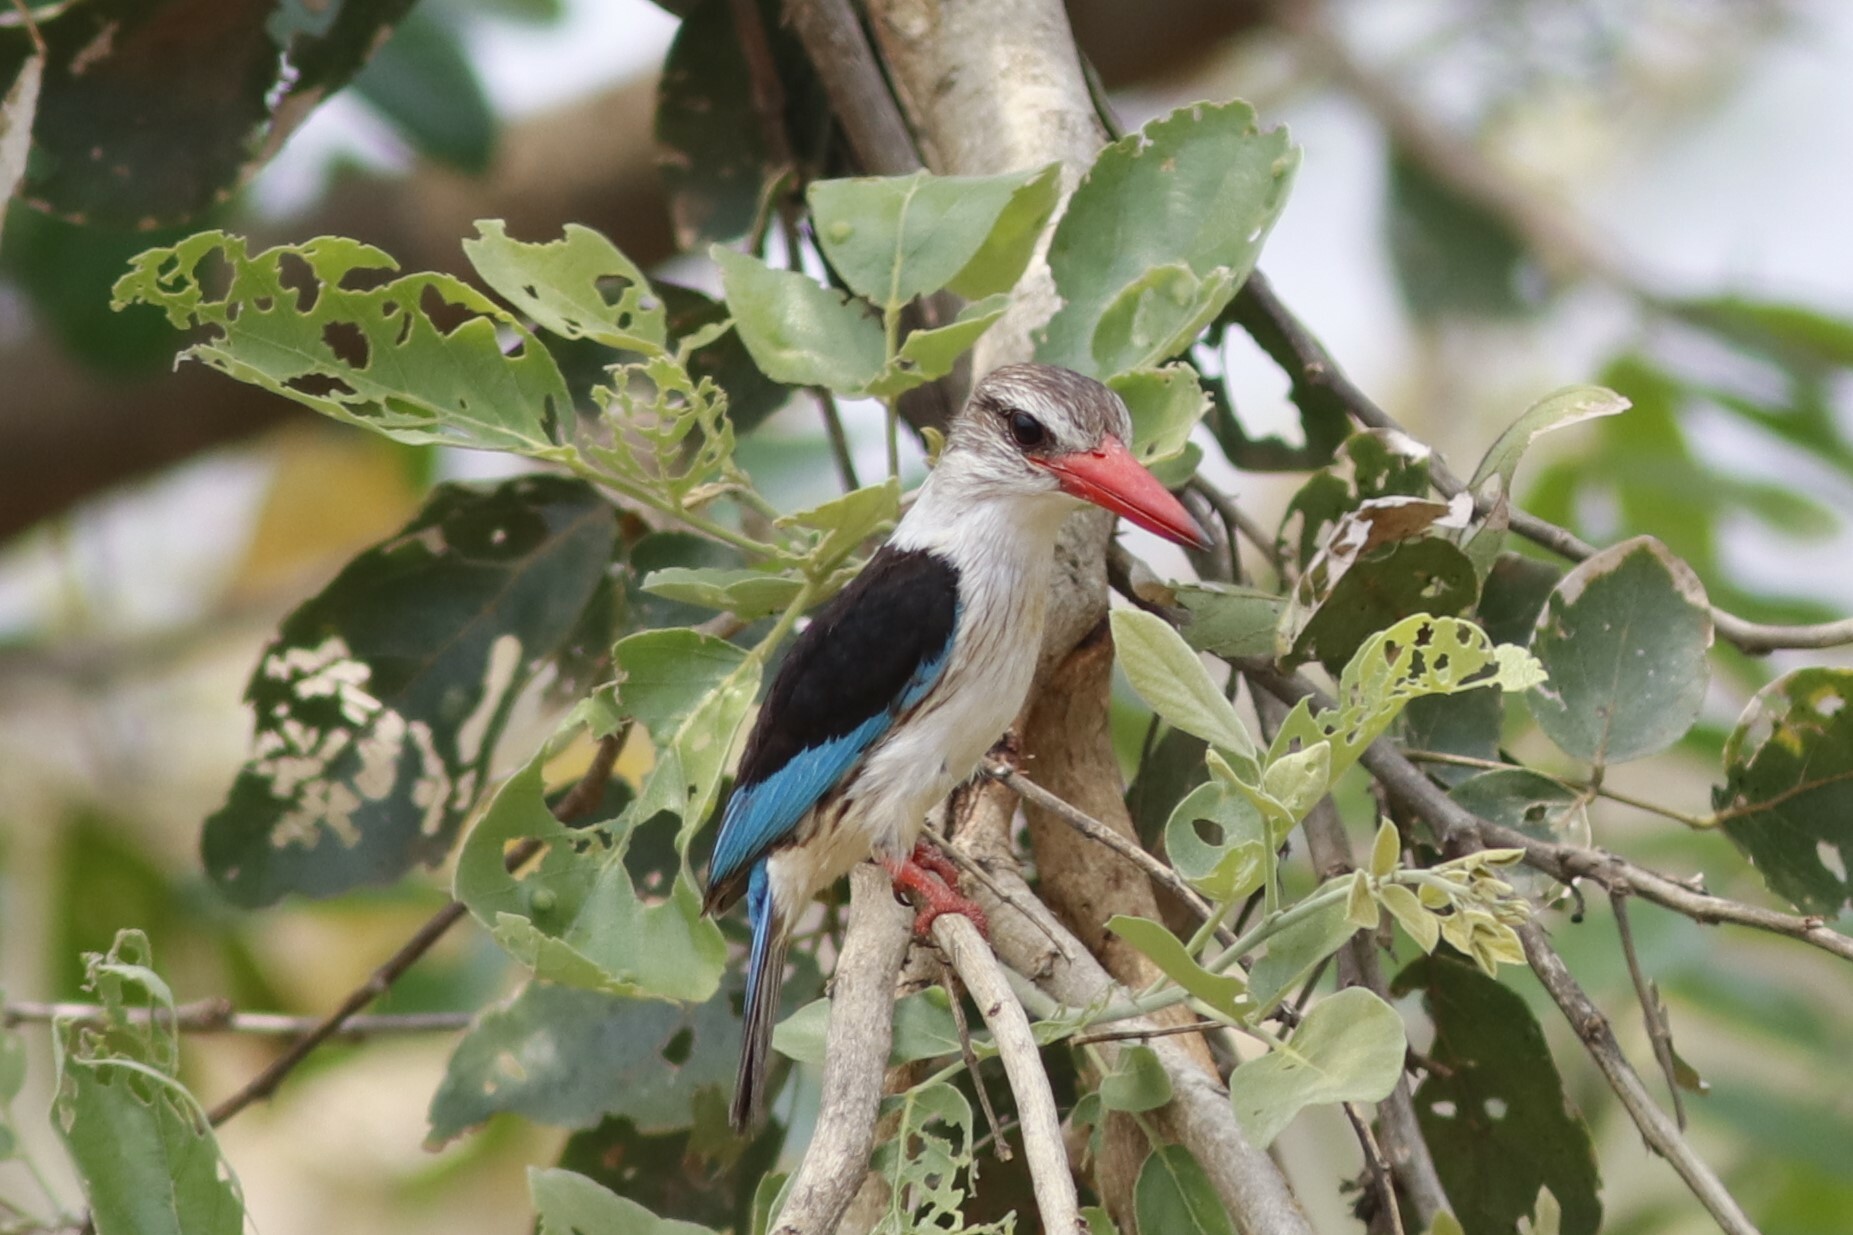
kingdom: Animalia
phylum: Chordata
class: Aves
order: Coraciiformes
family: Alcedinidae
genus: Halcyon
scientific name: Halcyon albiventris
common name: Brown-hooded kingfisher
